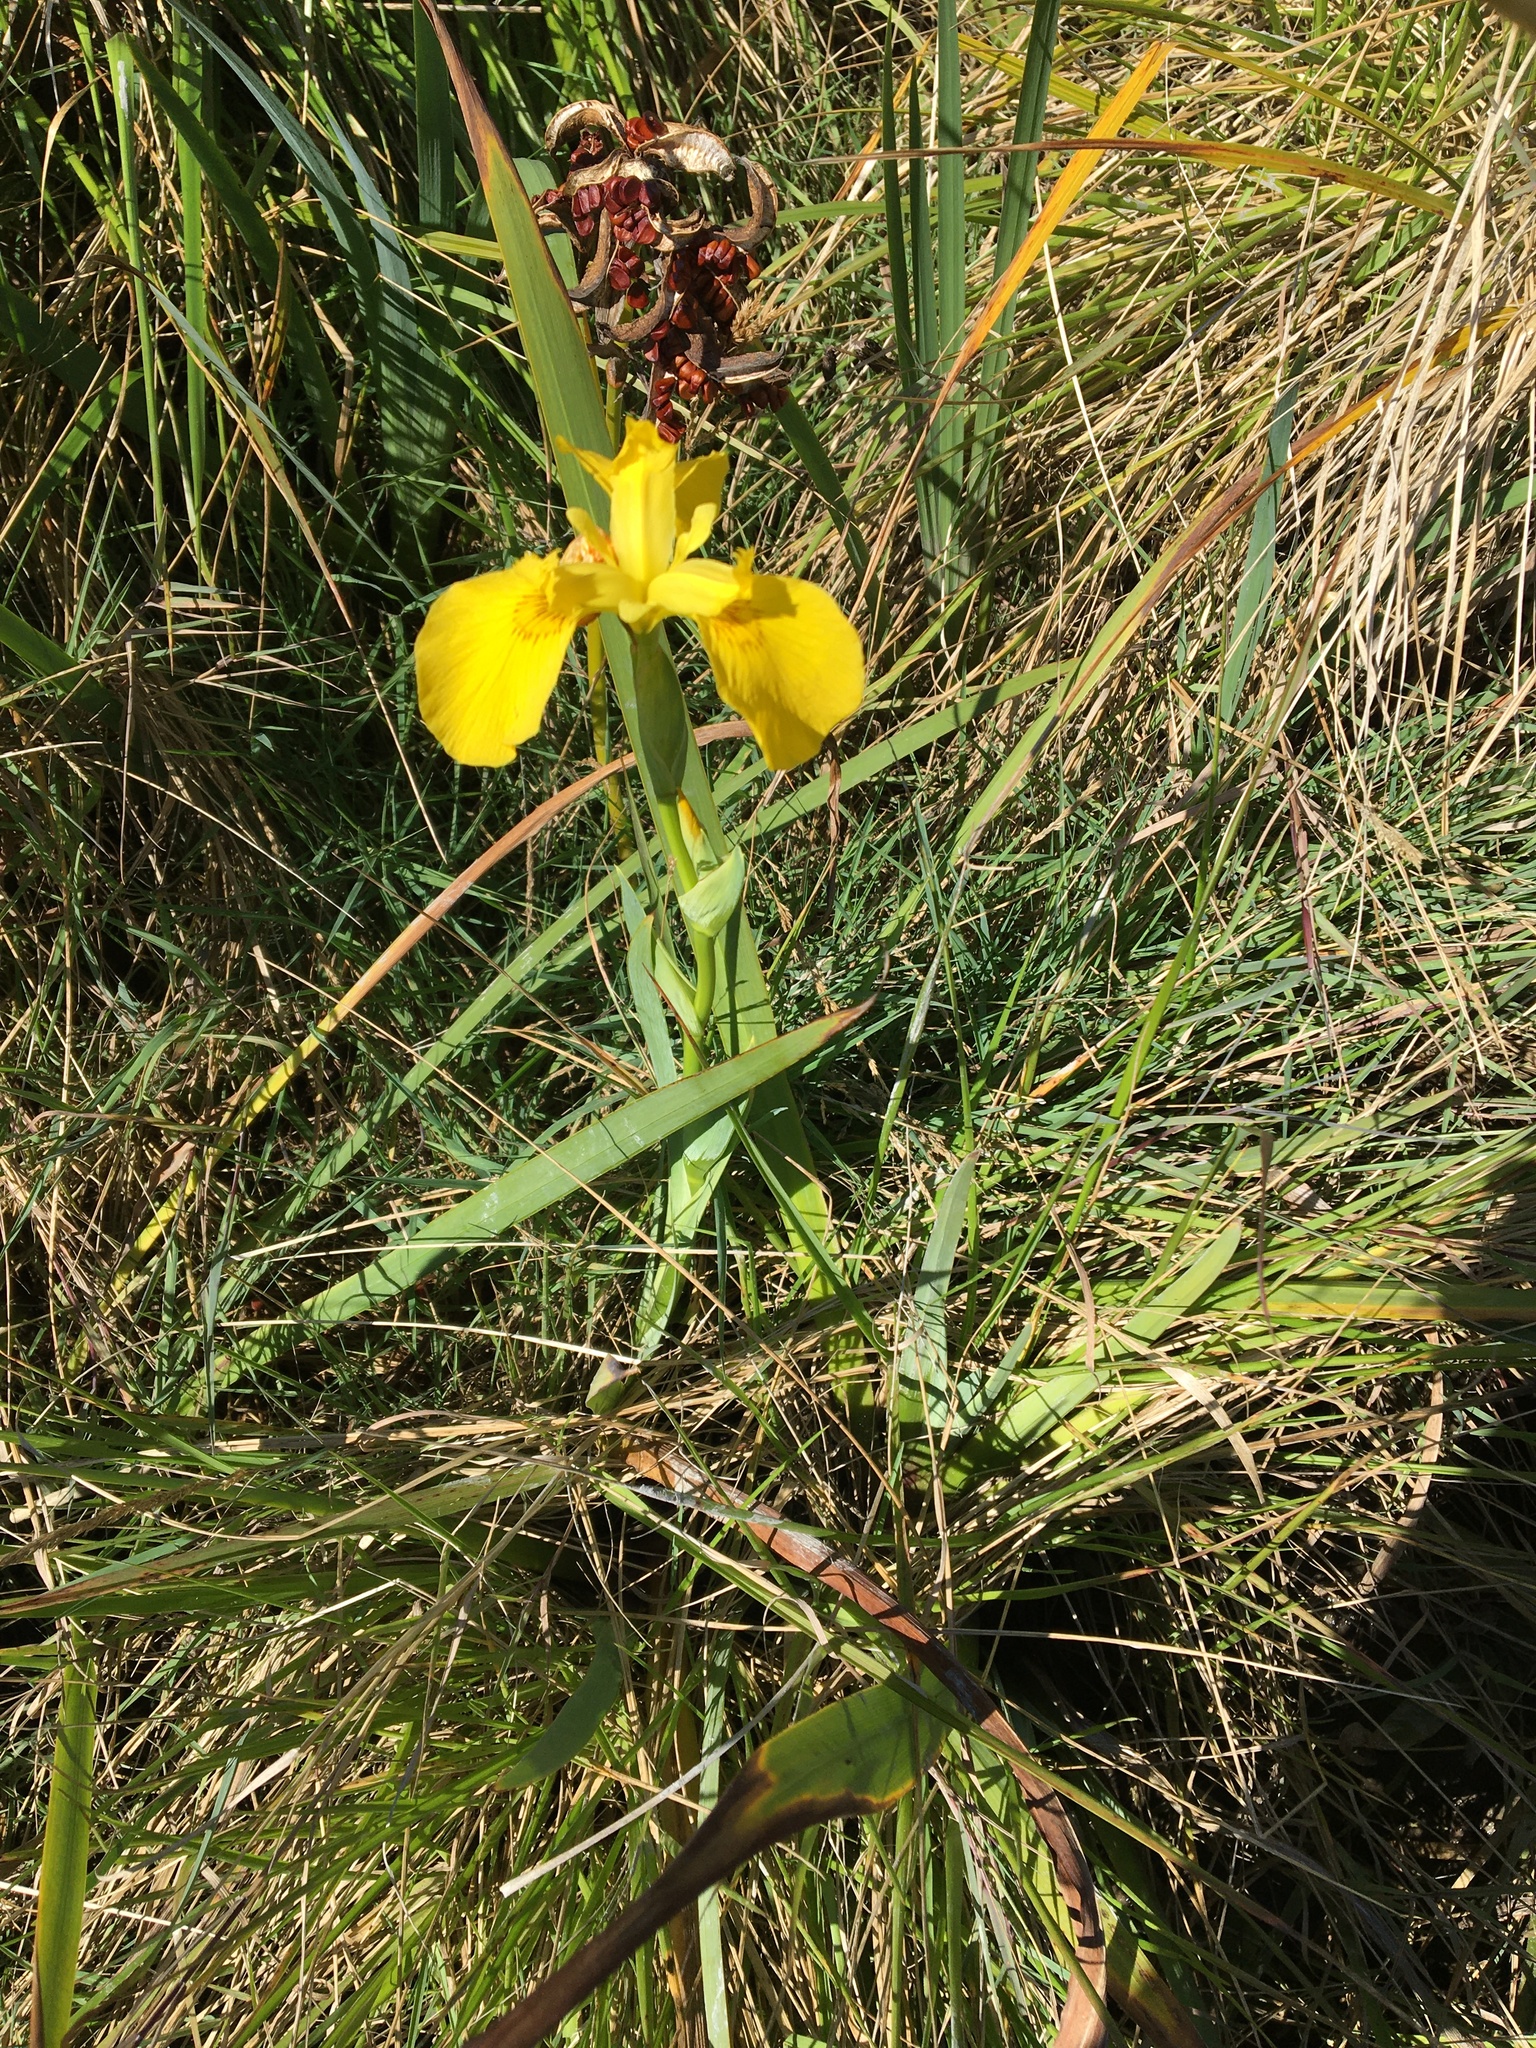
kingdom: Plantae
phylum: Tracheophyta
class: Liliopsida
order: Asparagales
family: Iridaceae
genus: Iris
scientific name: Iris pseudacorus
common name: Yellow flag
